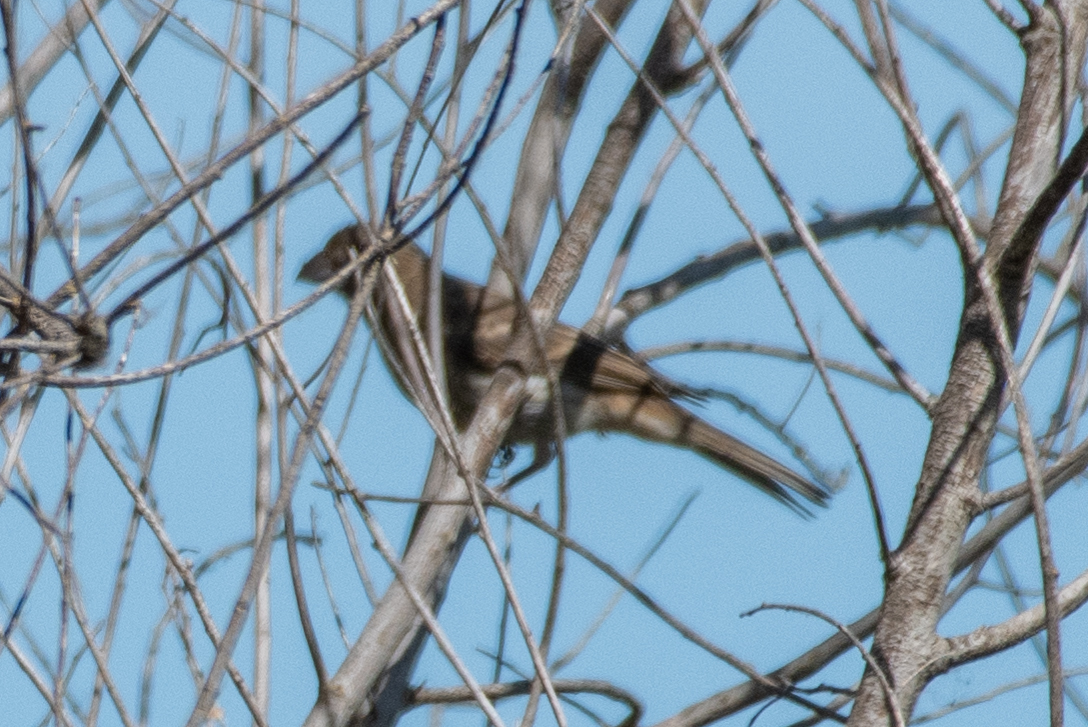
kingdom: Animalia
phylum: Chordata
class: Aves
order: Passeriformes
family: Fringillidae
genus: Haemorhous
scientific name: Haemorhous mexicanus
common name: House finch
